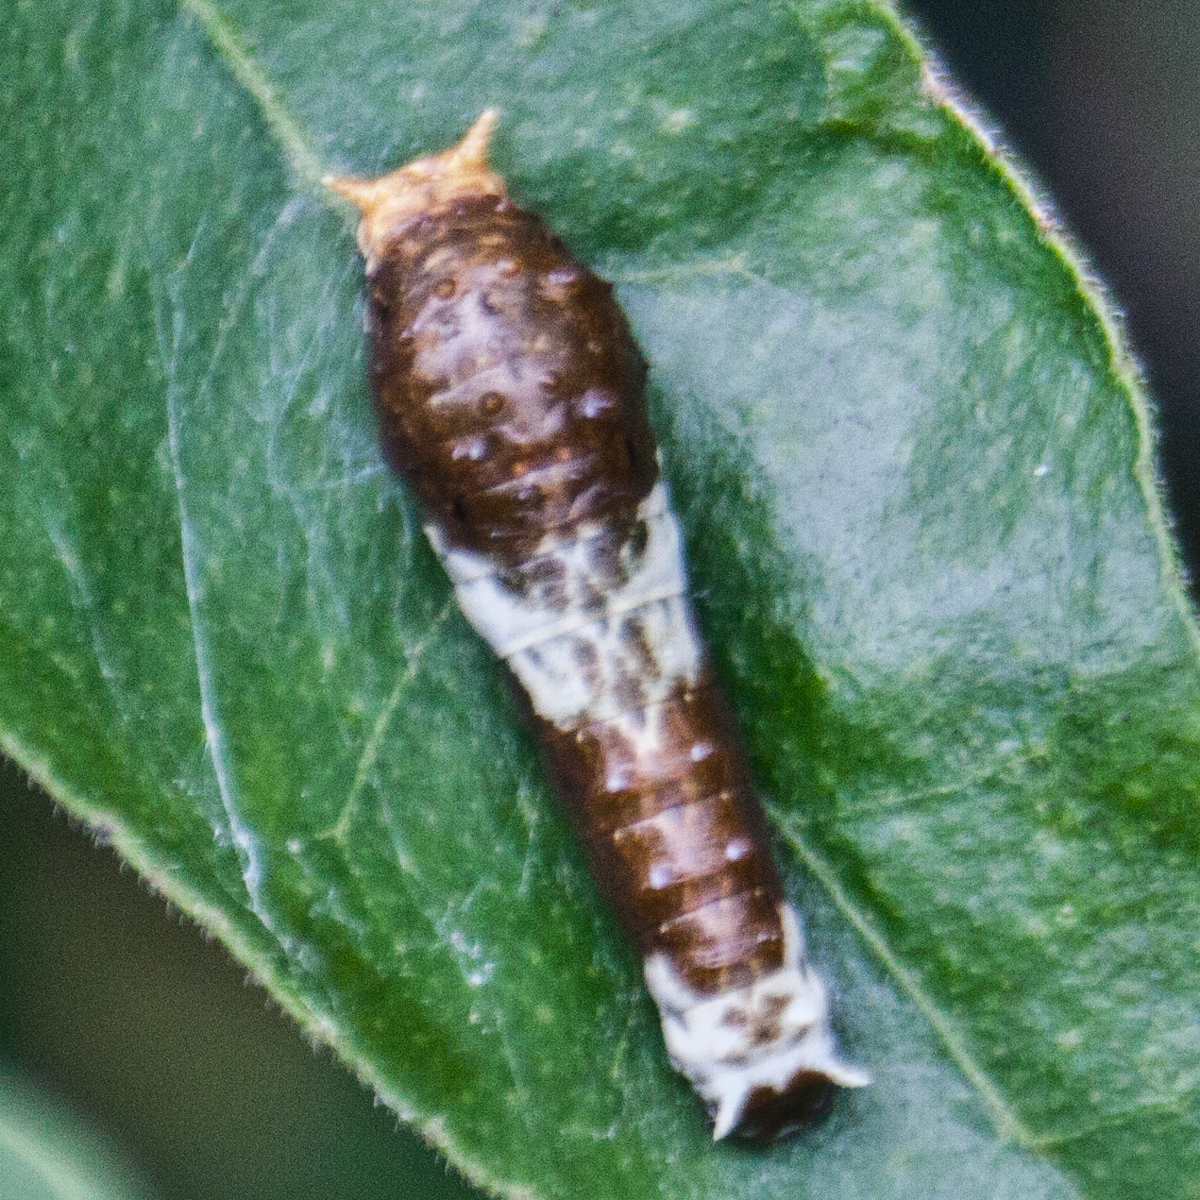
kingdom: Animalia
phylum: Arthropoda
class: Insecta
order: Lepidoptera
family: Papilionidae
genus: Papilio
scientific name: Papilio polytes
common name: Common mormon
